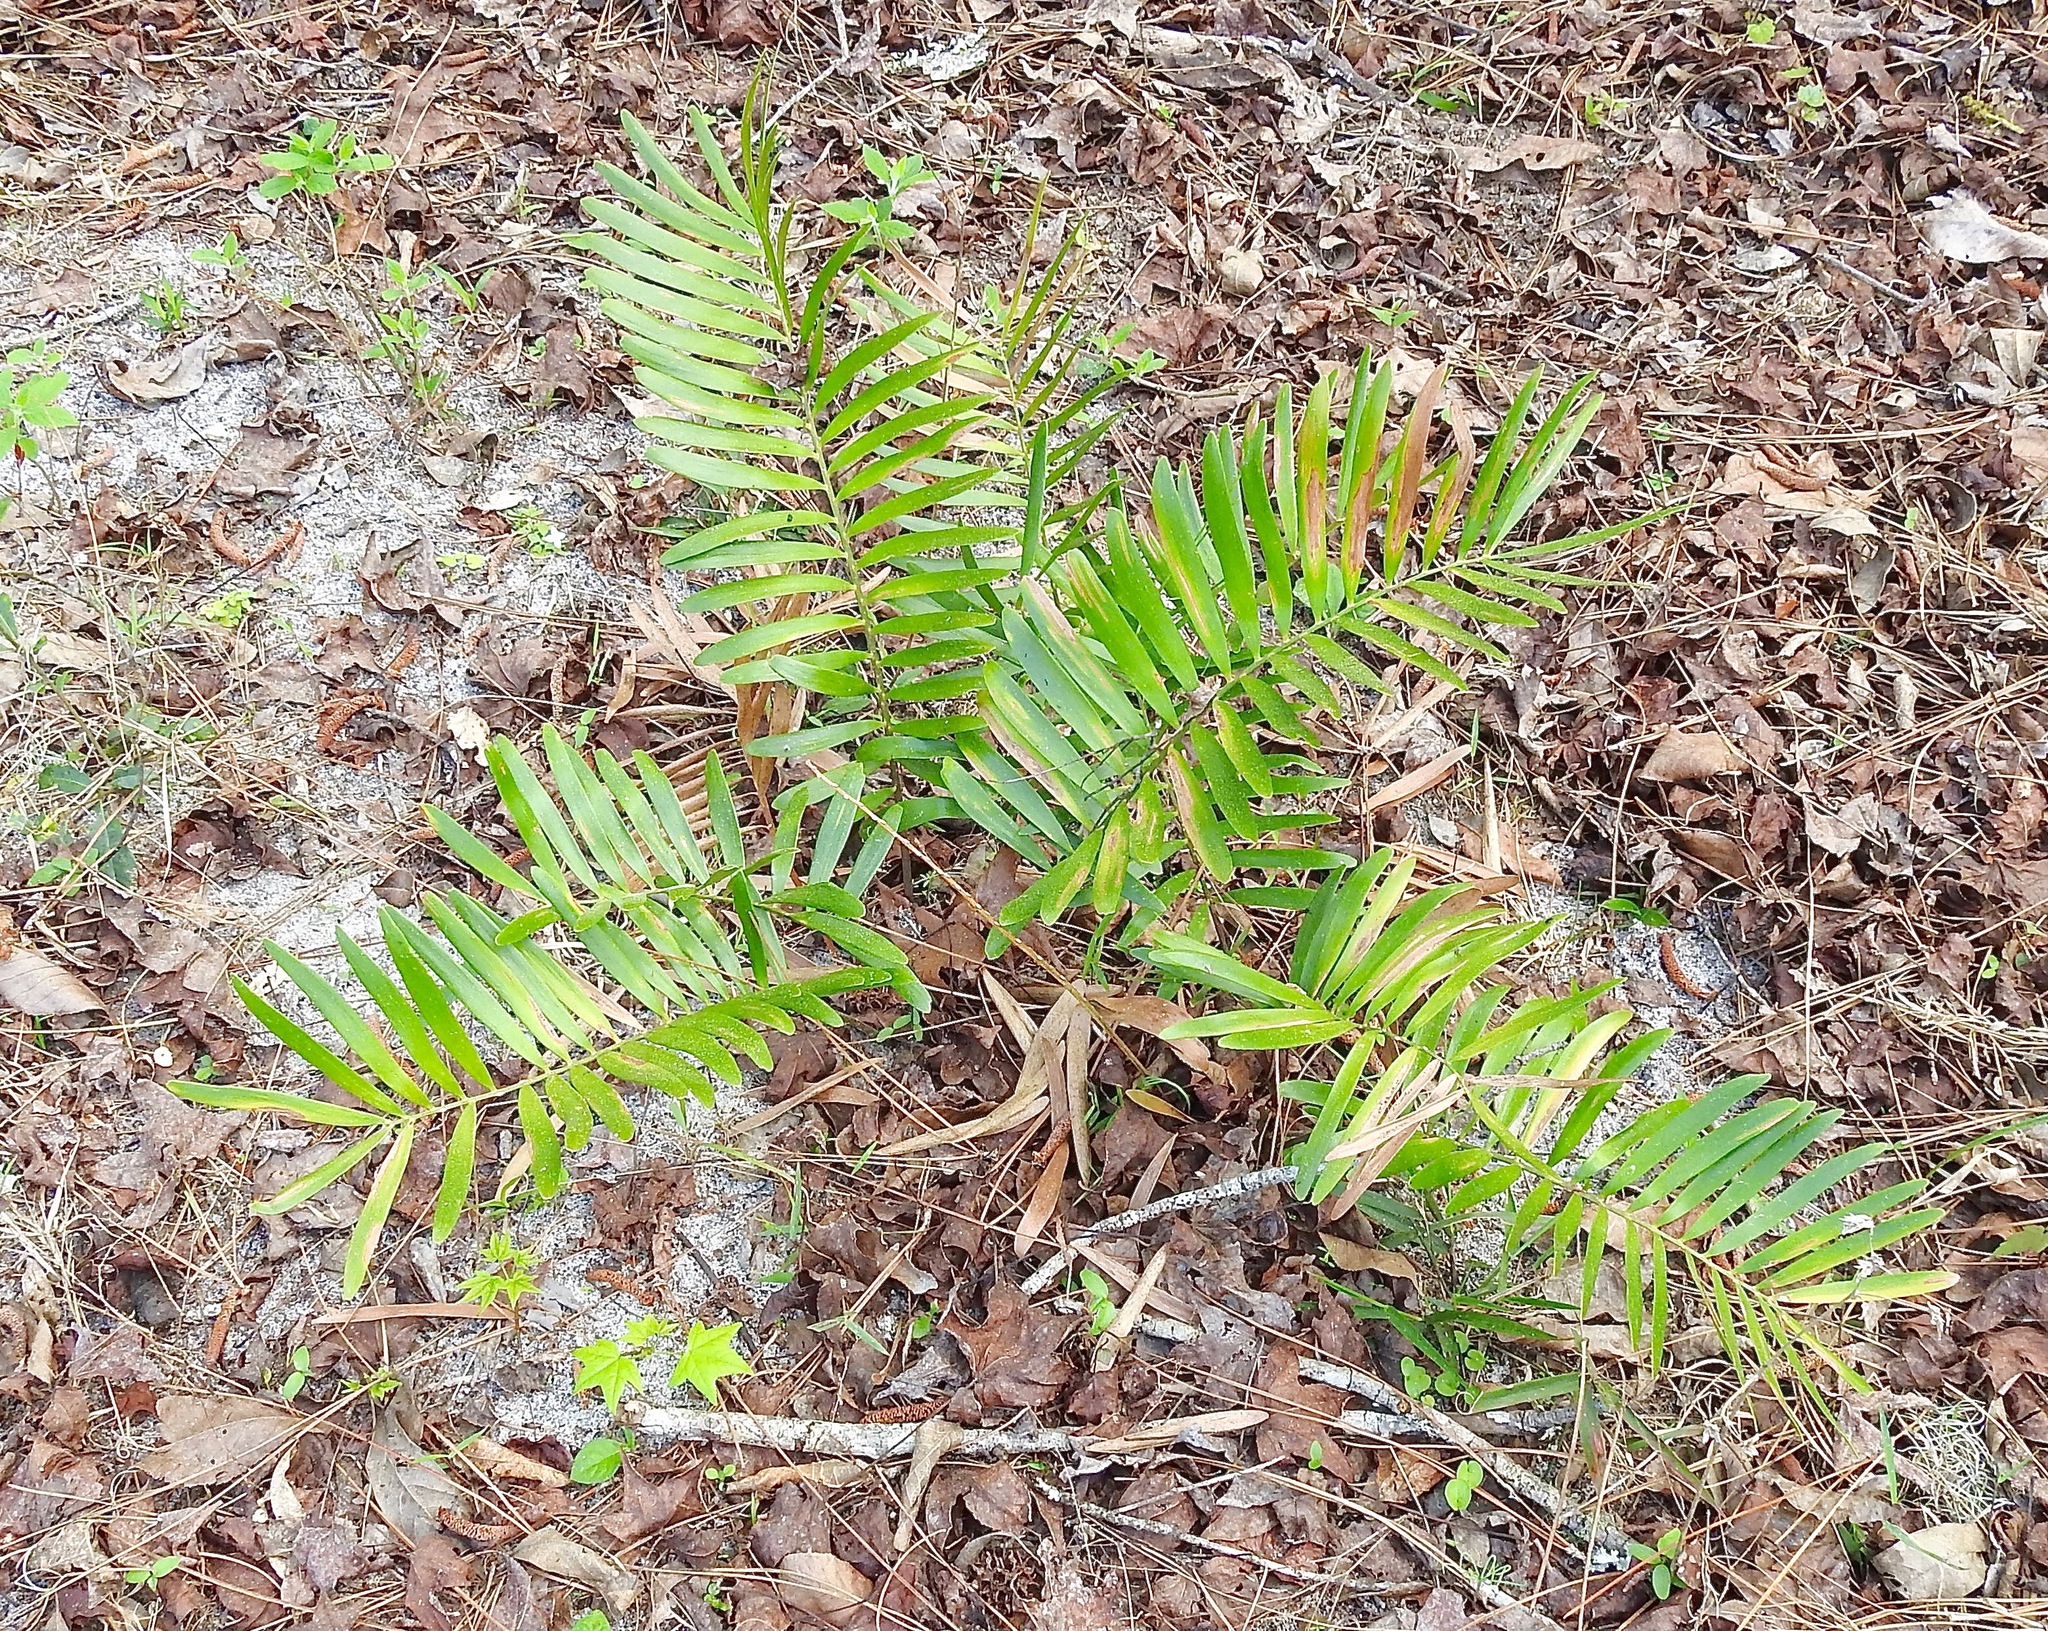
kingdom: Plantae
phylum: Tracheophyta
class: Cycadopsida
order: Cycadales
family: Zamiaceae
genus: Zamia
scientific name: Zamia integrifolia
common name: Florida arrowroot
